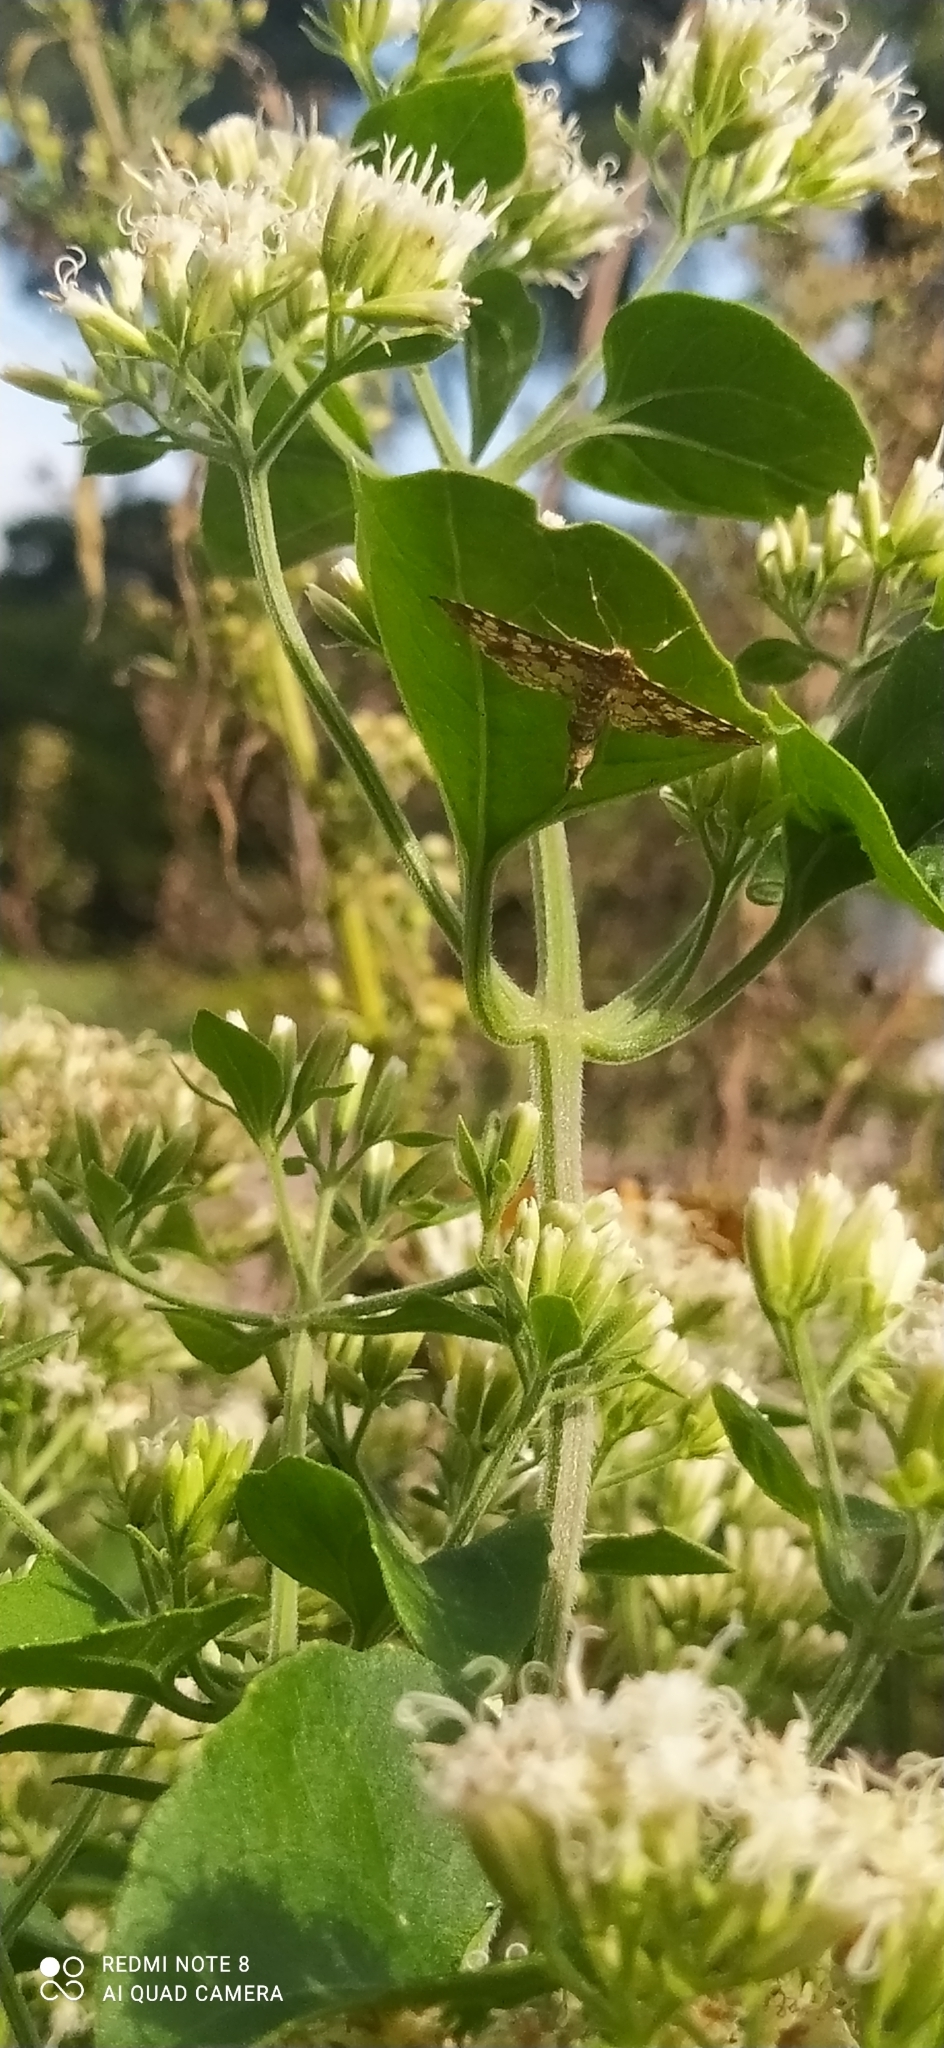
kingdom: Animalia
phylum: Arthropoda
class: Insecta
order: Lepidoptera
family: Crambidae
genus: Samea
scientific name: Samea ecclesialis
